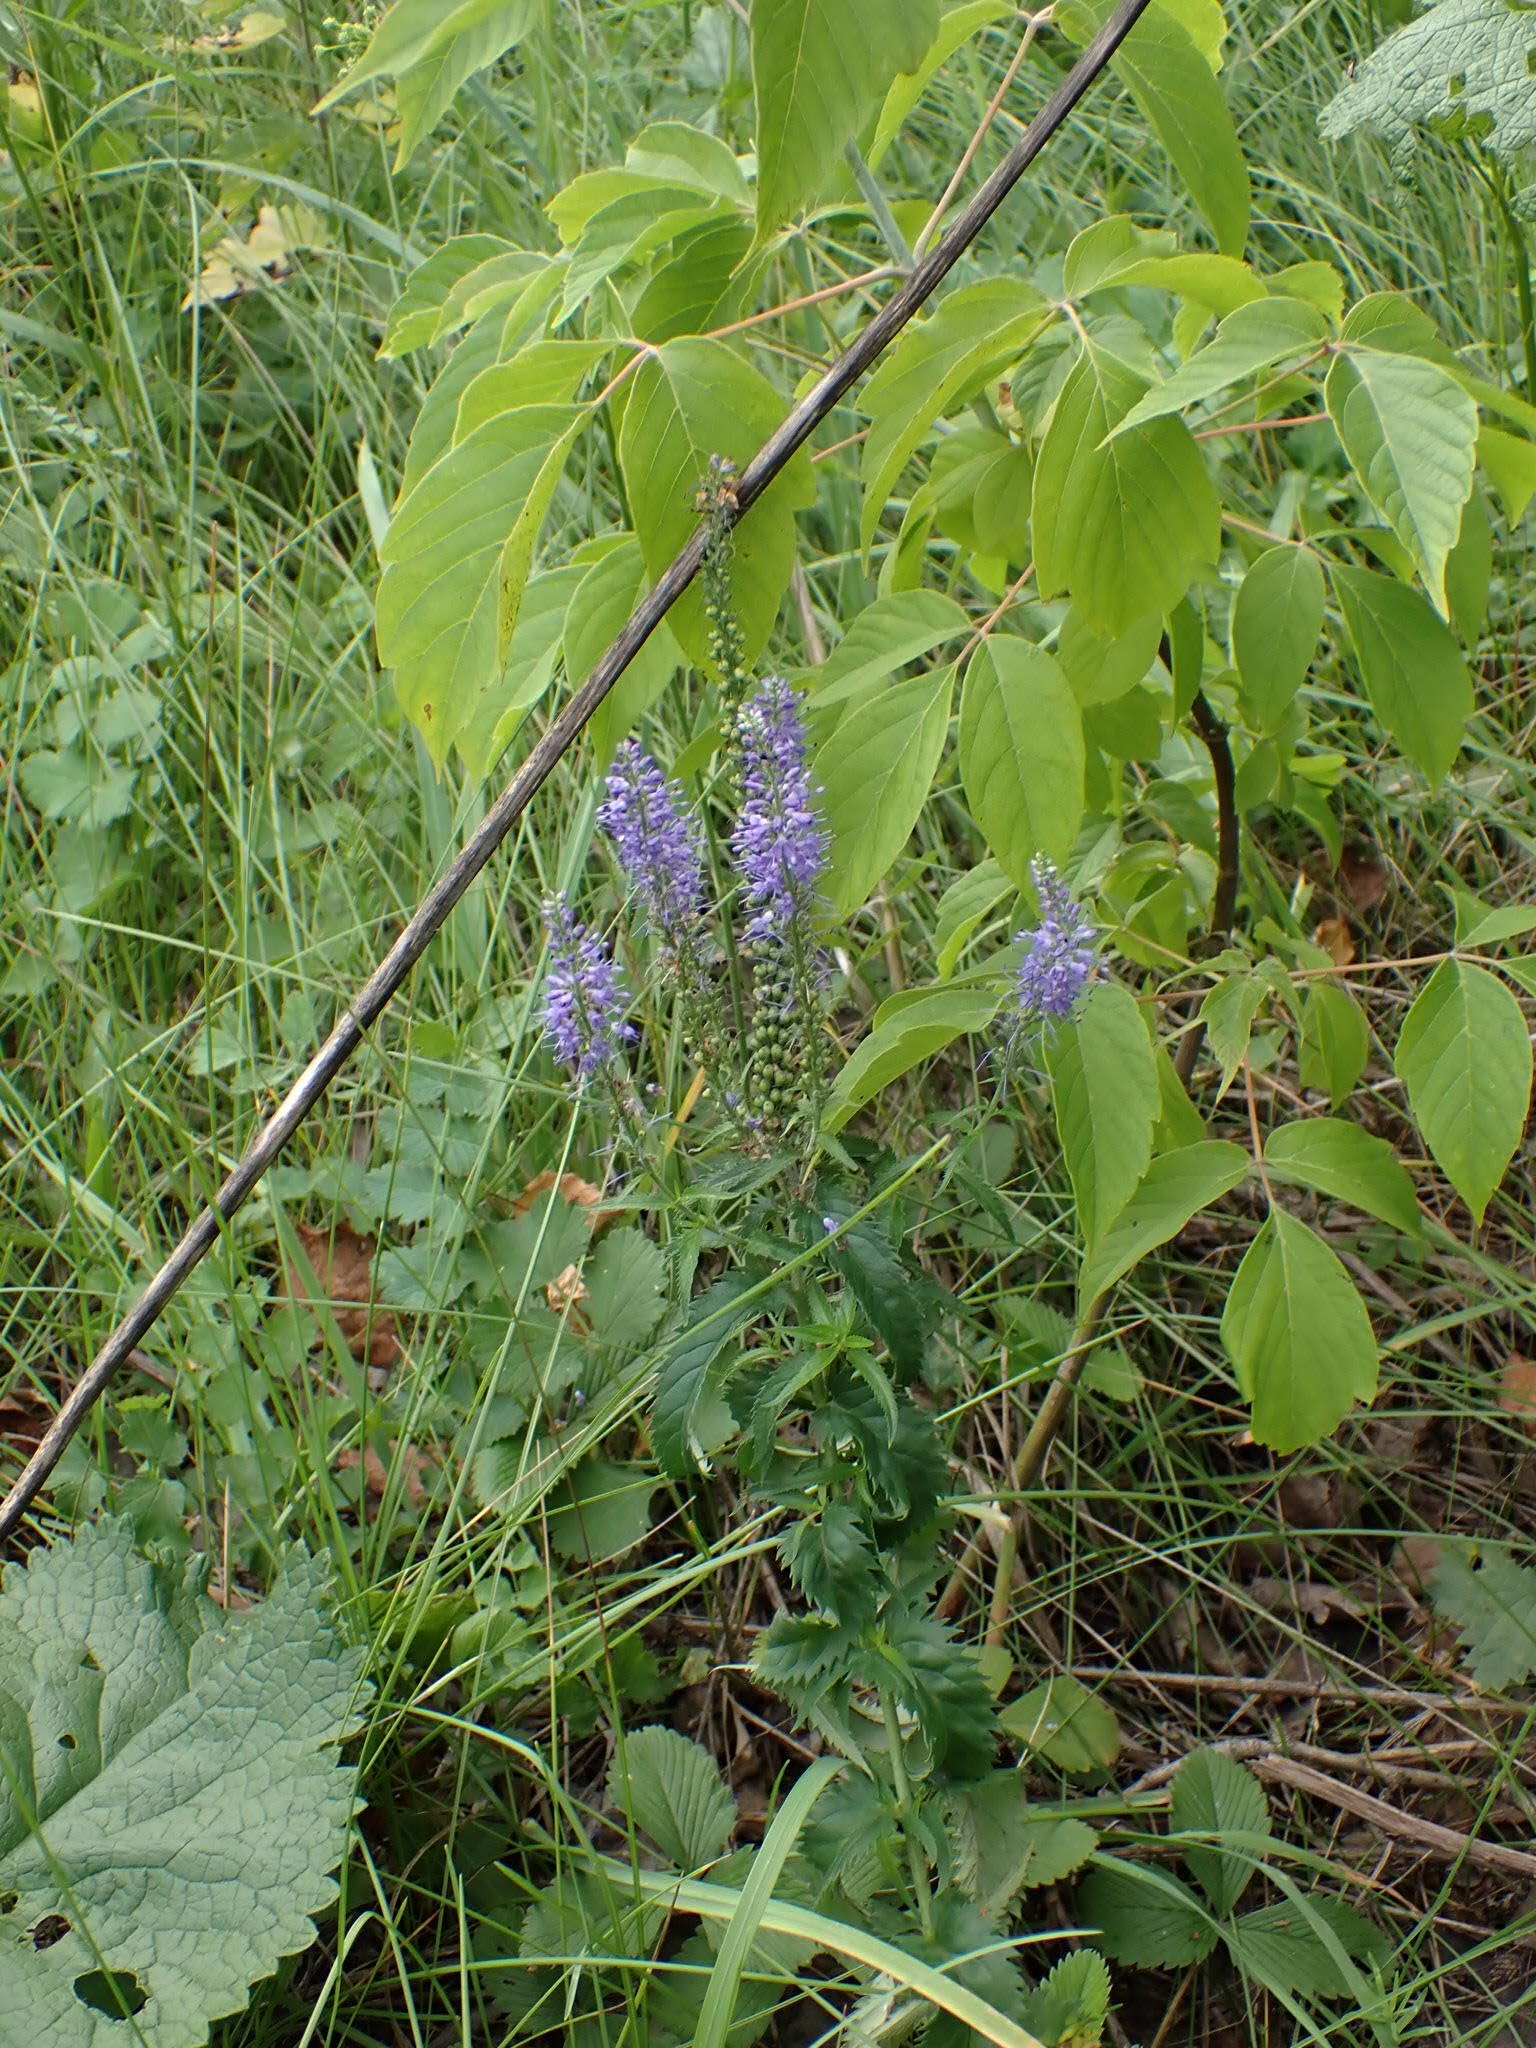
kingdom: Plantae
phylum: Tracheophyta
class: Magnoliopsida
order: Lamiales
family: Plantaginaceae
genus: Veronica
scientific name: Veronica longifolia
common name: Garden speedwell
